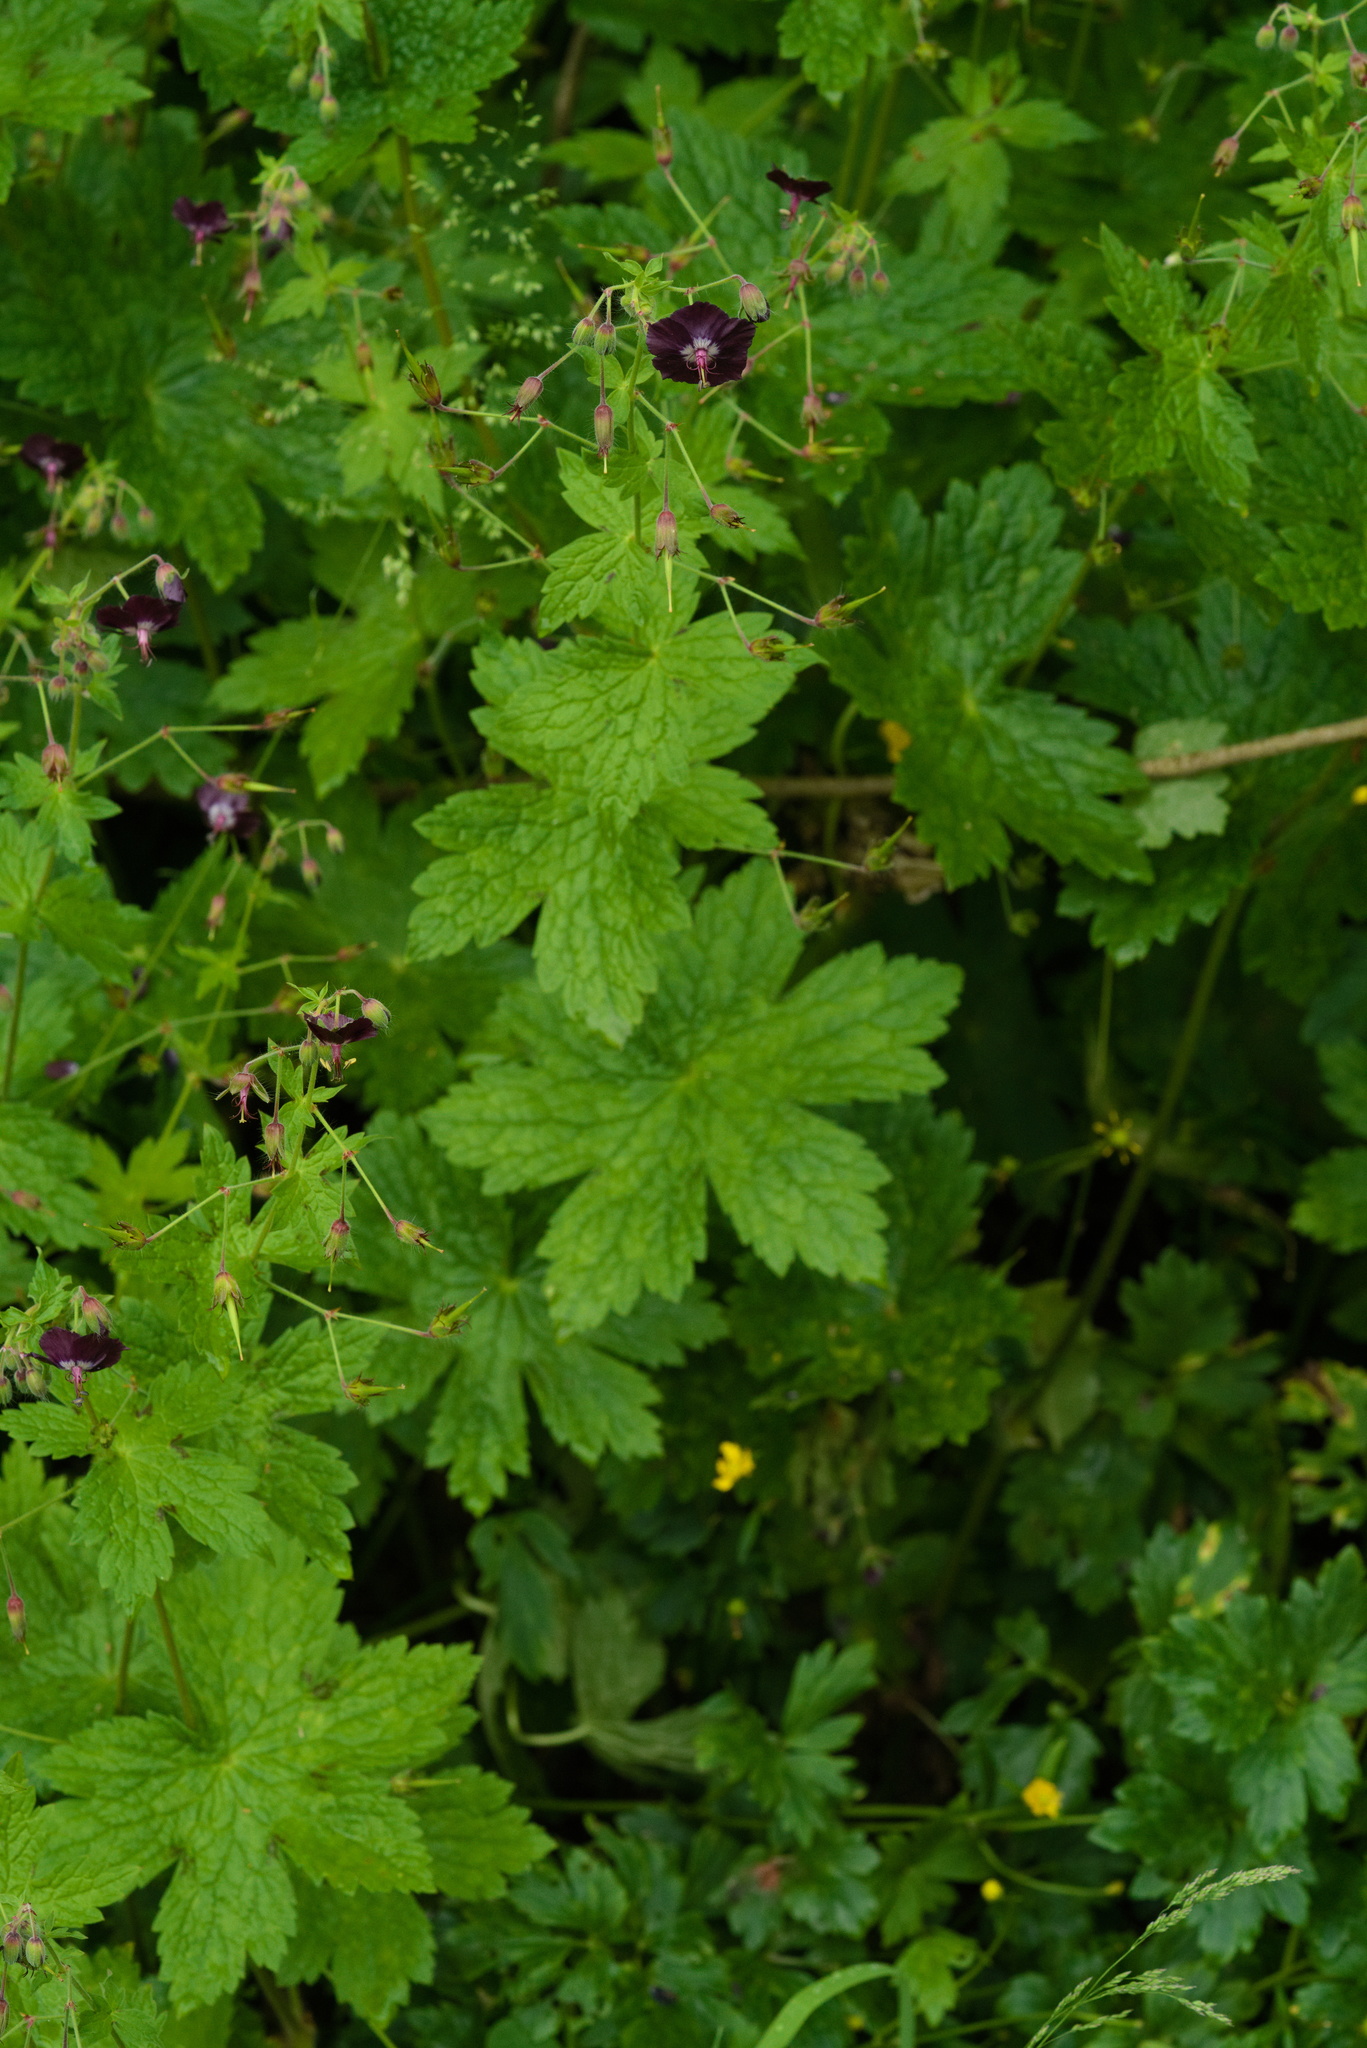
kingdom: Plantae
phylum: Tracheophyta
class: Magnoliopsida
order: Geraniales
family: Geraniaceae
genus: Geranium
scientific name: Geranium phaeum
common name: Dusky crane's-bill
